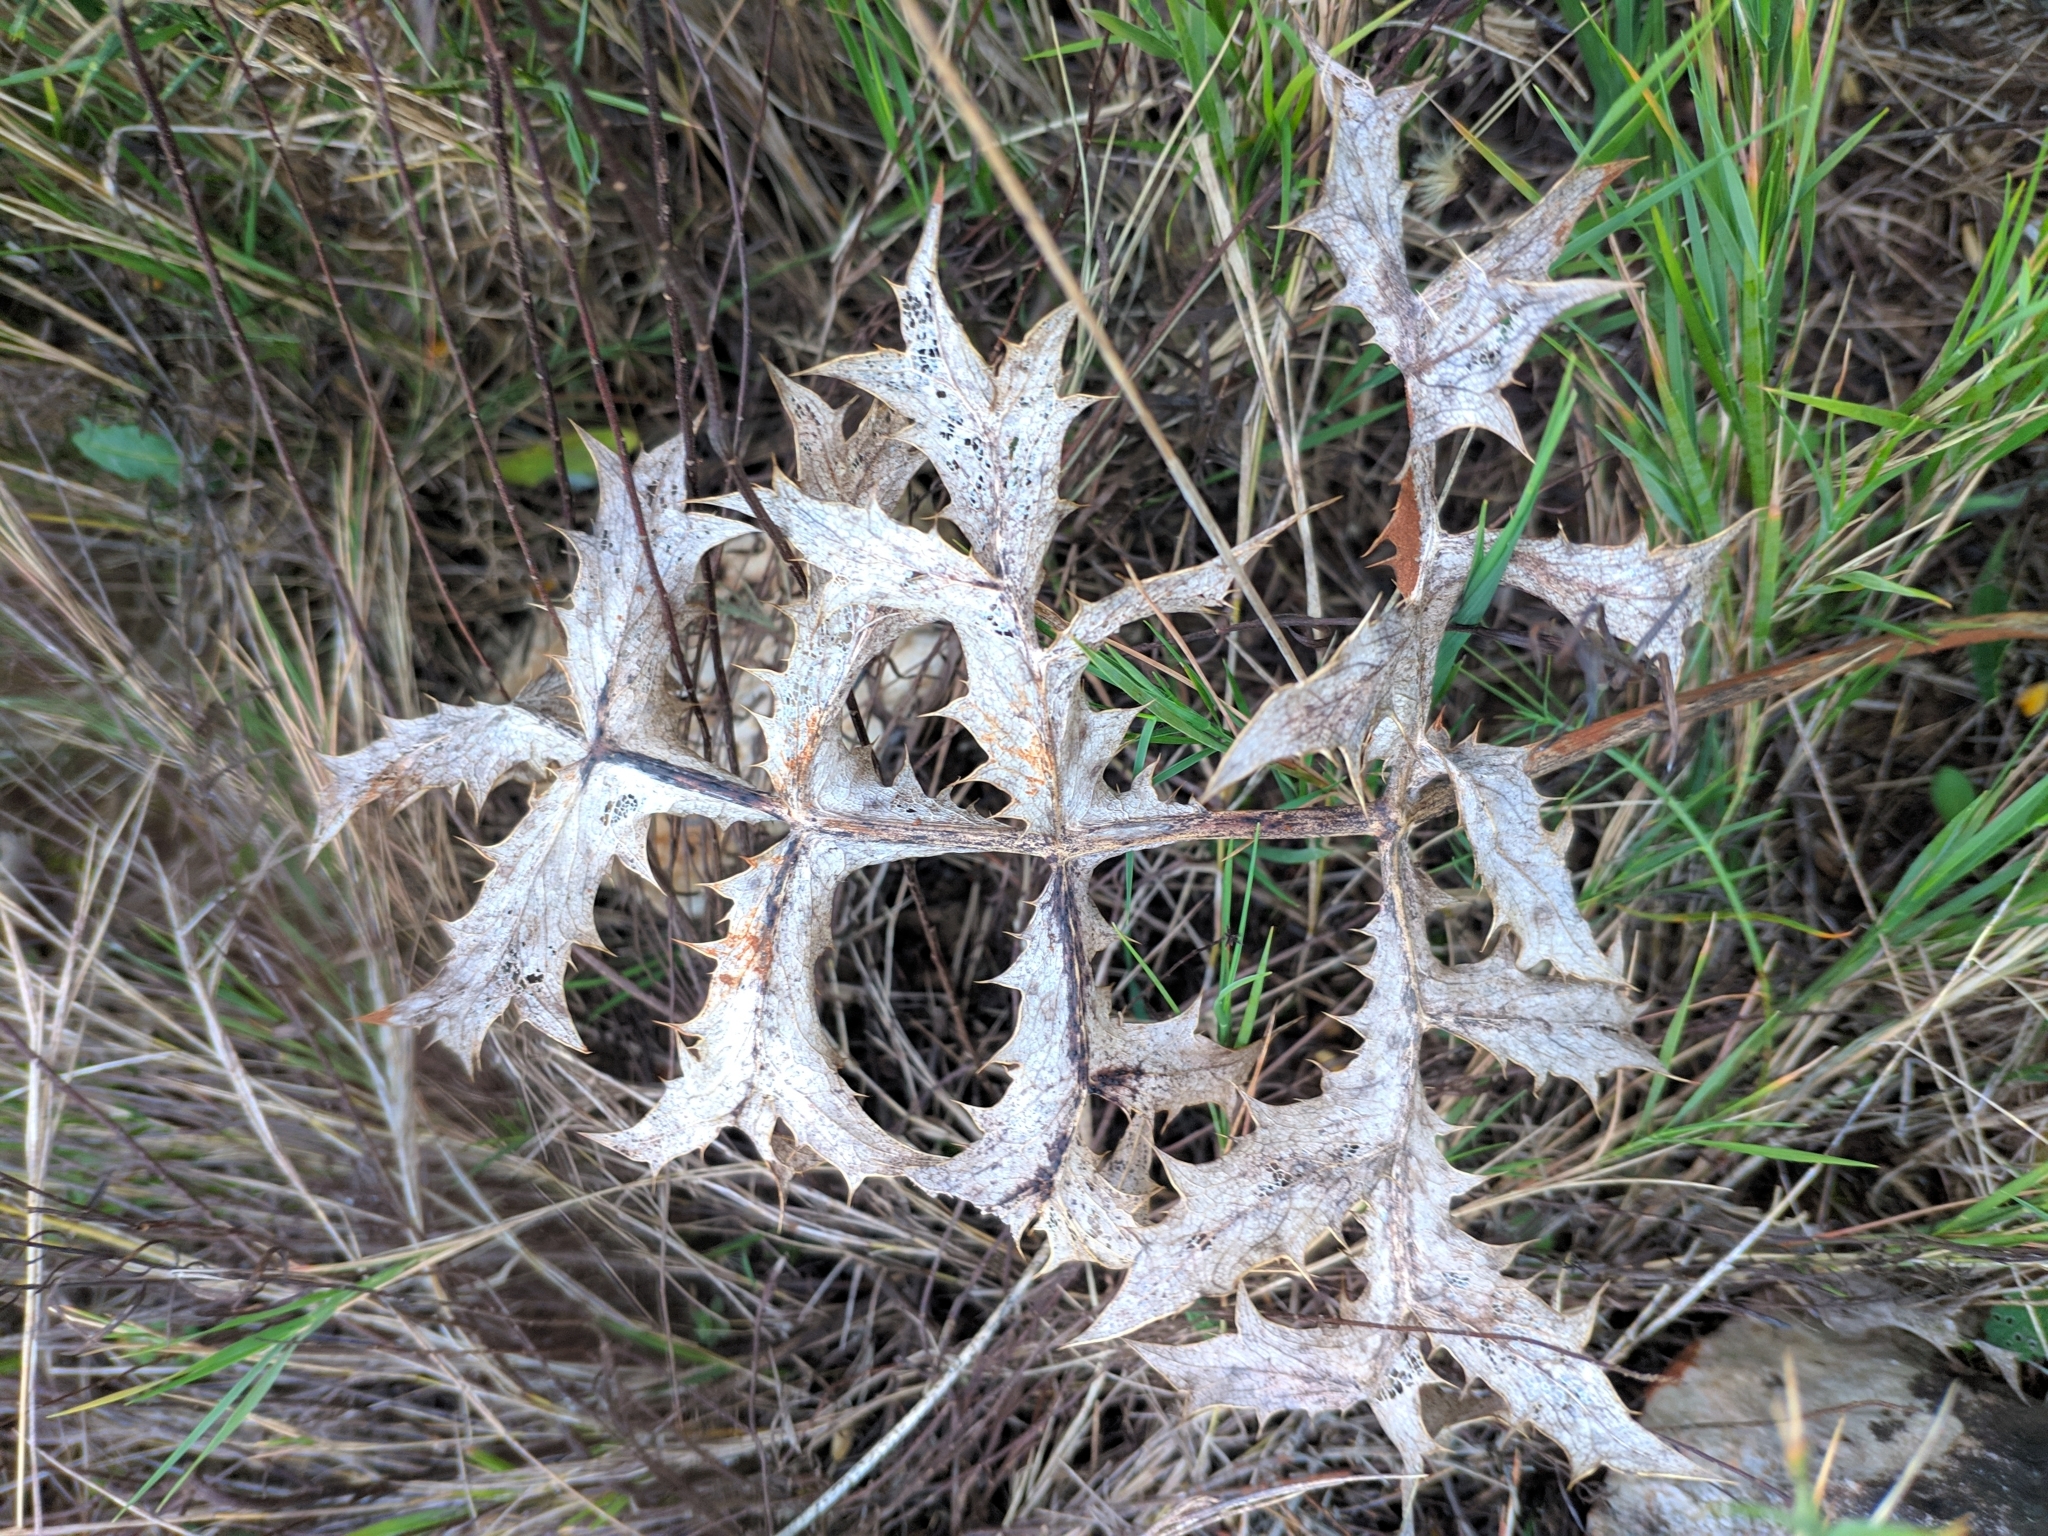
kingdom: Plantae
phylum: Tracheophyta
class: Magnoliopsida
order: Apiales
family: Apiaceae
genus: Eryngium
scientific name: Eryngium campestre
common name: Field eryngo
